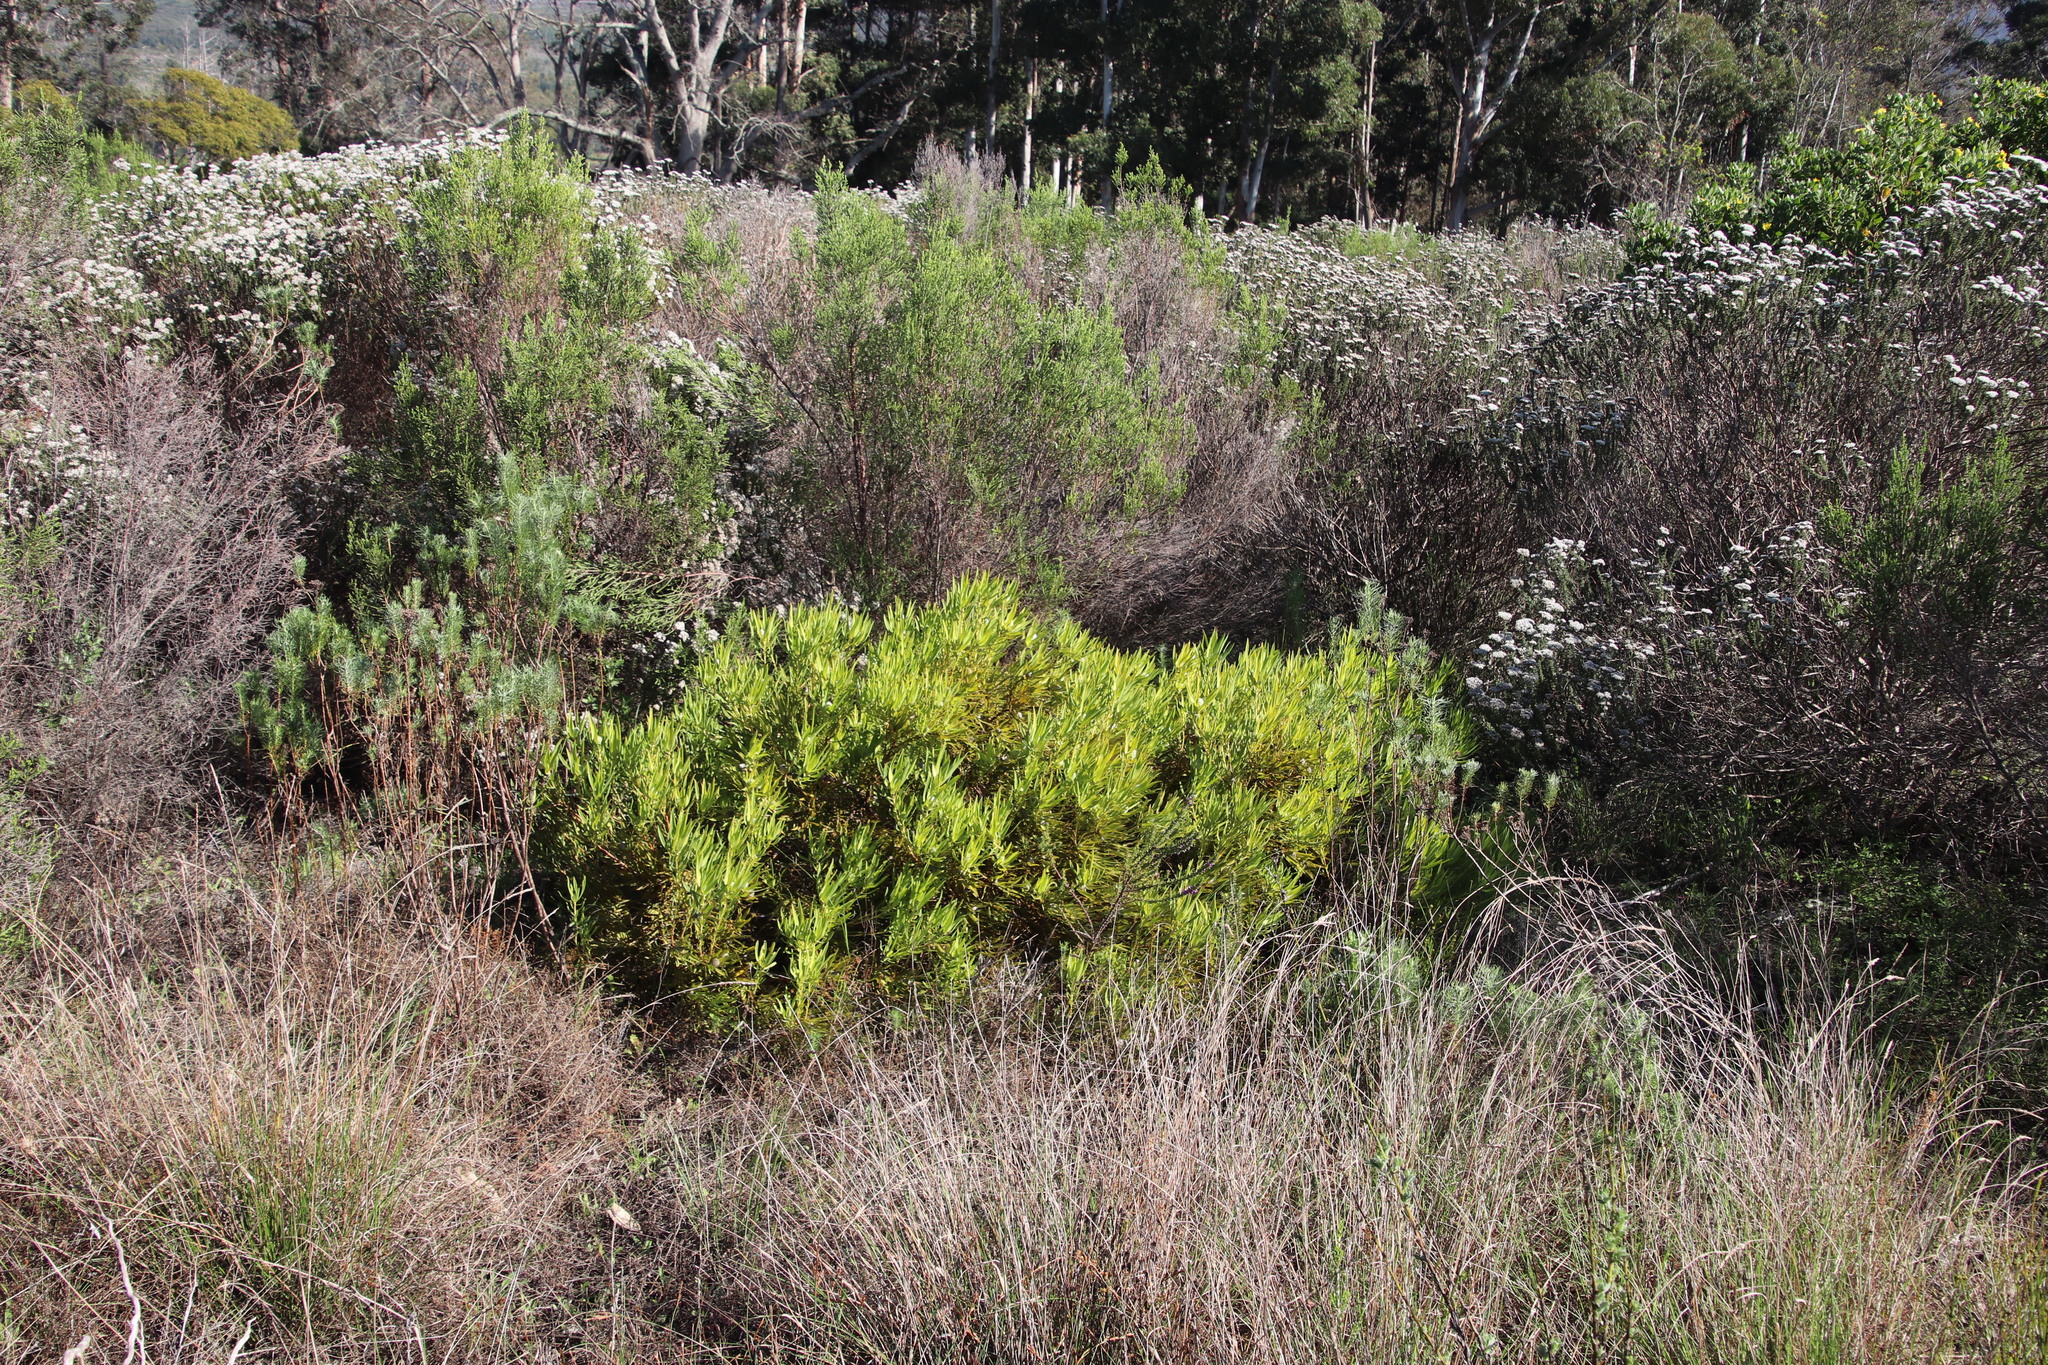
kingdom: Plantae
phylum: Tracheophyta
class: Magnoliopsida
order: Proteales
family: Proteaceae
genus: Leucadendron
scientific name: Leucadendron salignum
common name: Common sunshine conebush
